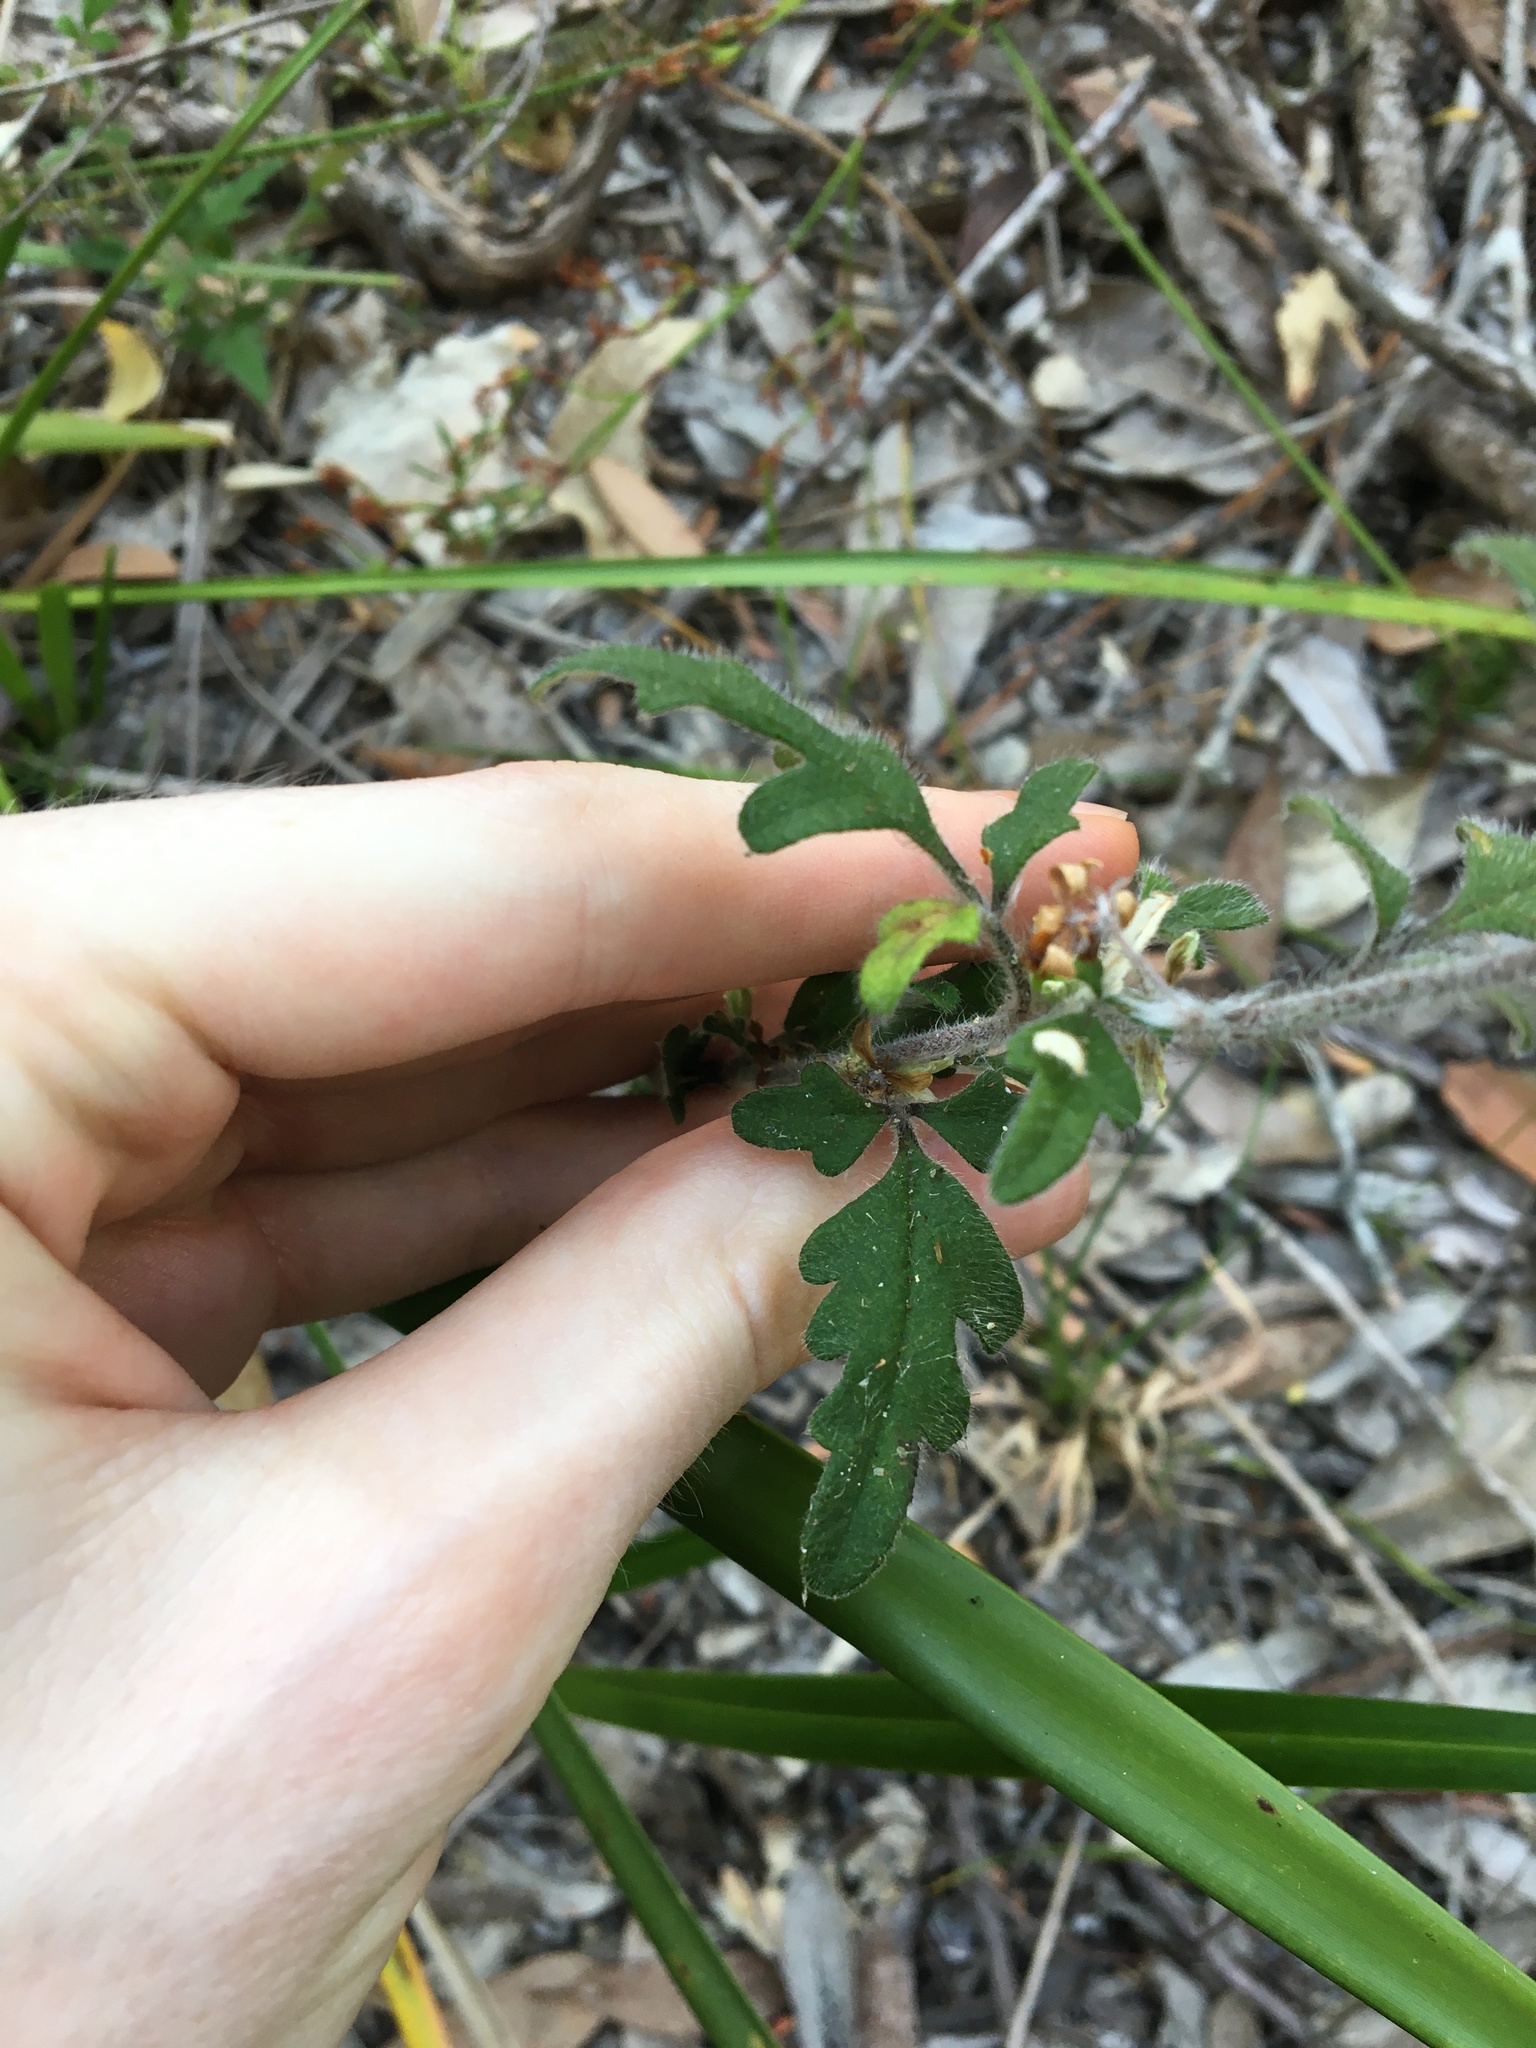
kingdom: Plantae
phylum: Tracheophyta
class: Magnoliopsida
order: Apiales
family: Apiaceae
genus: Xanthosia
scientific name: Xanthosia pilosa
